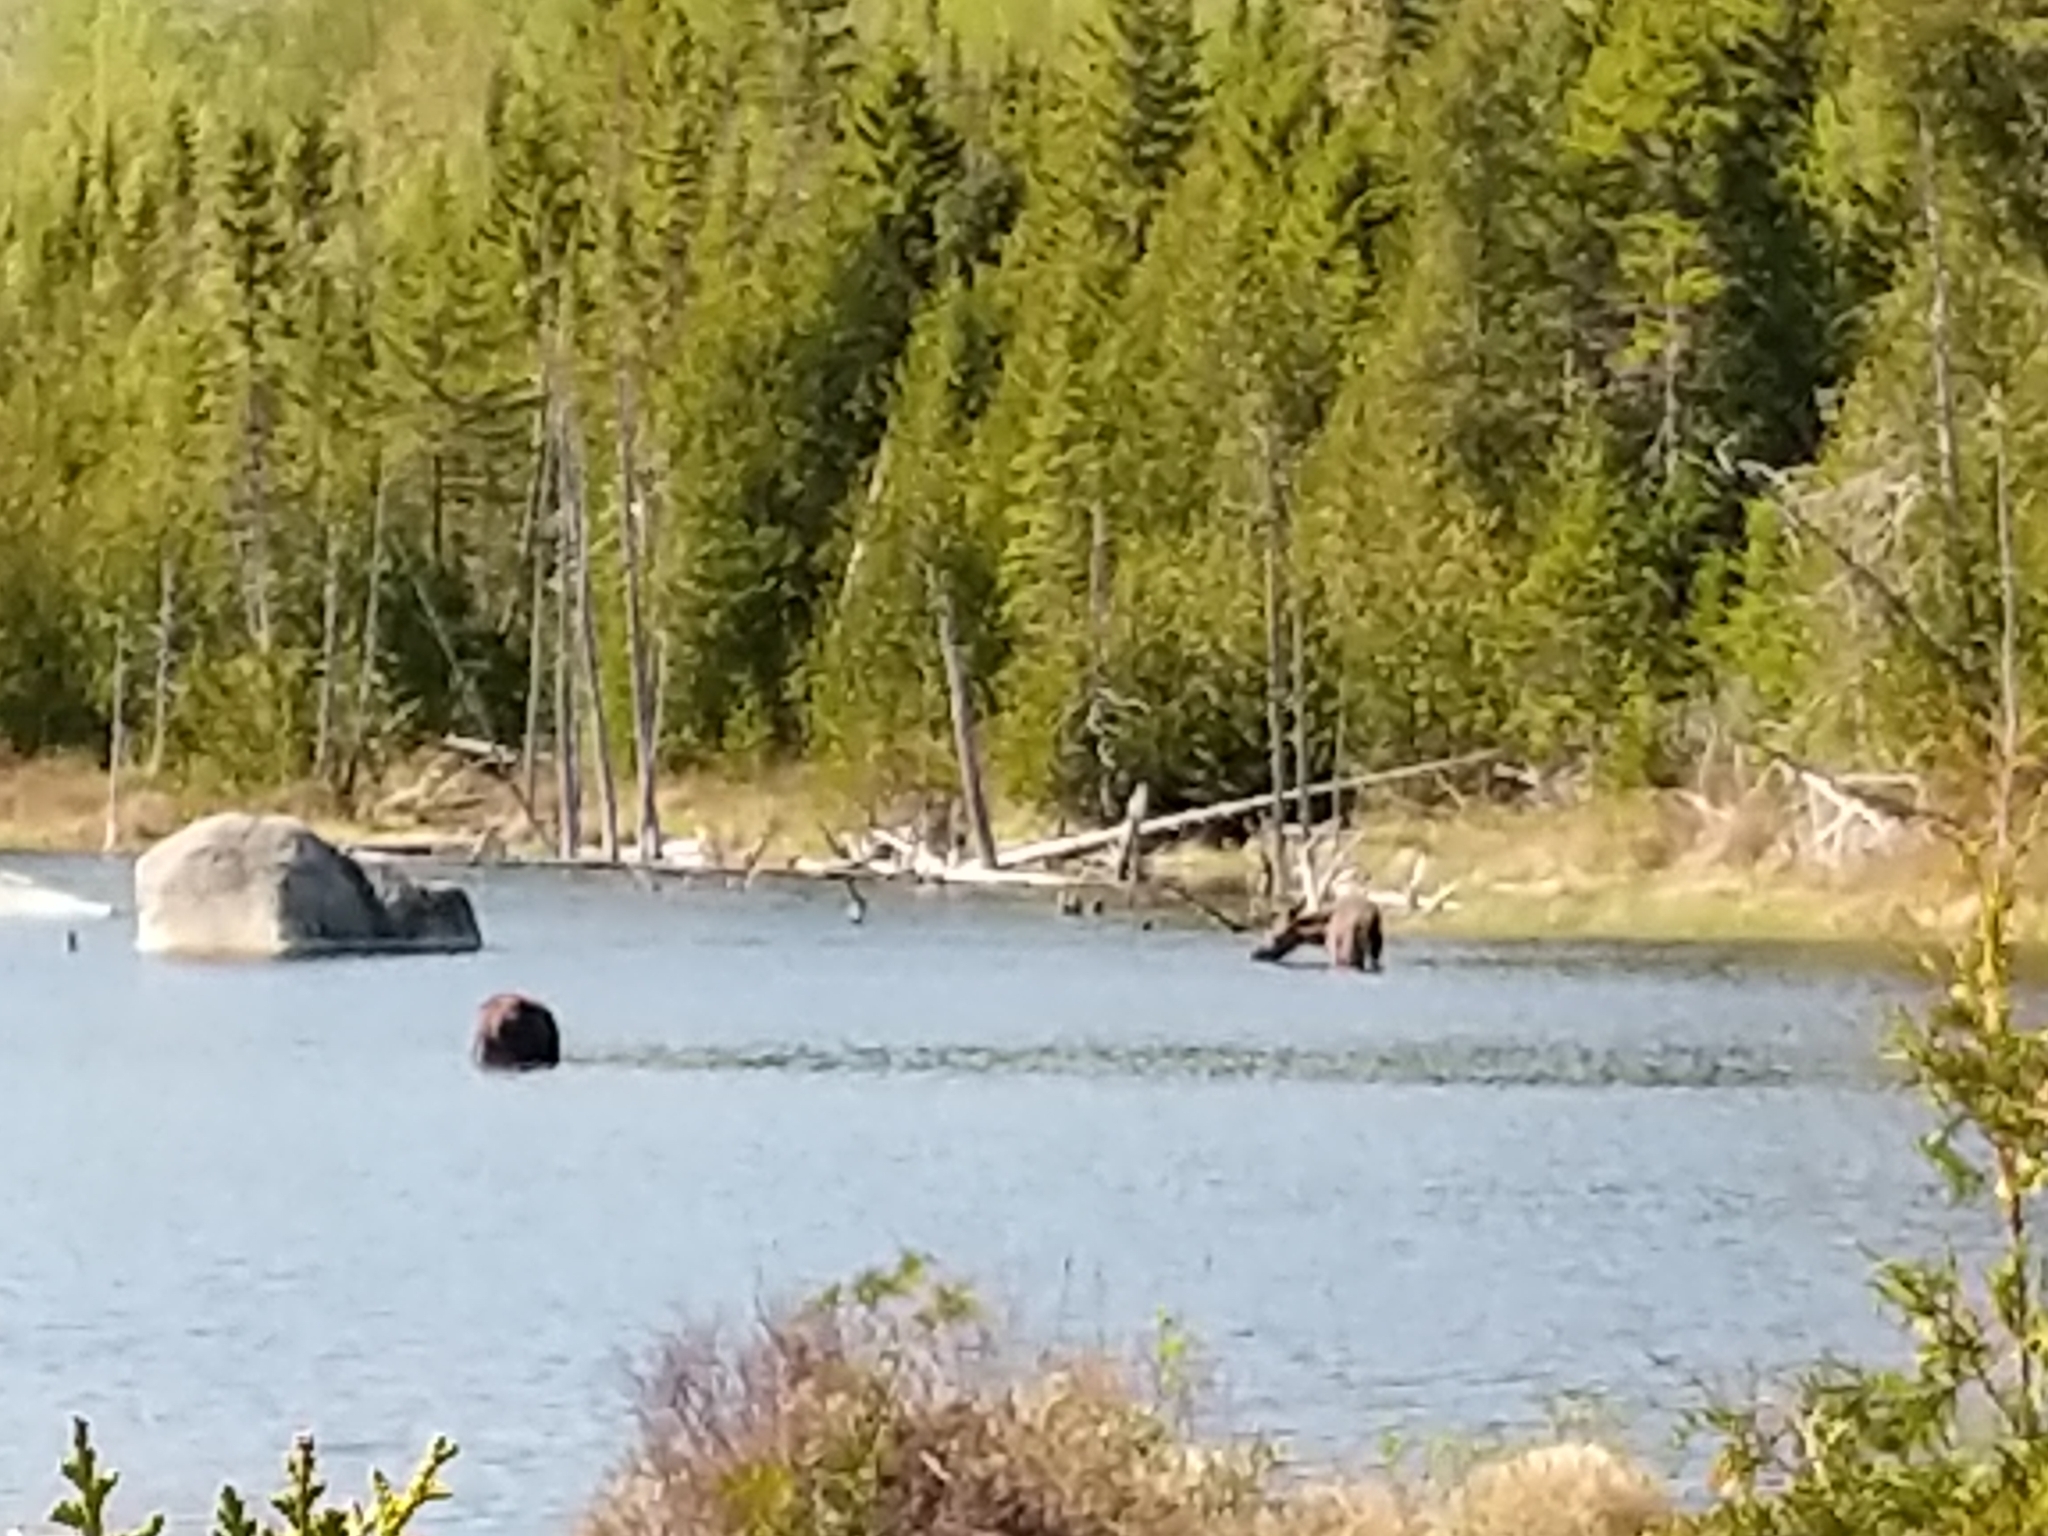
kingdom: Animalia
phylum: Chordata
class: Mammalia
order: Artiodactyla
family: Cervidae
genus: Alces
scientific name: Alces alces
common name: Moose
